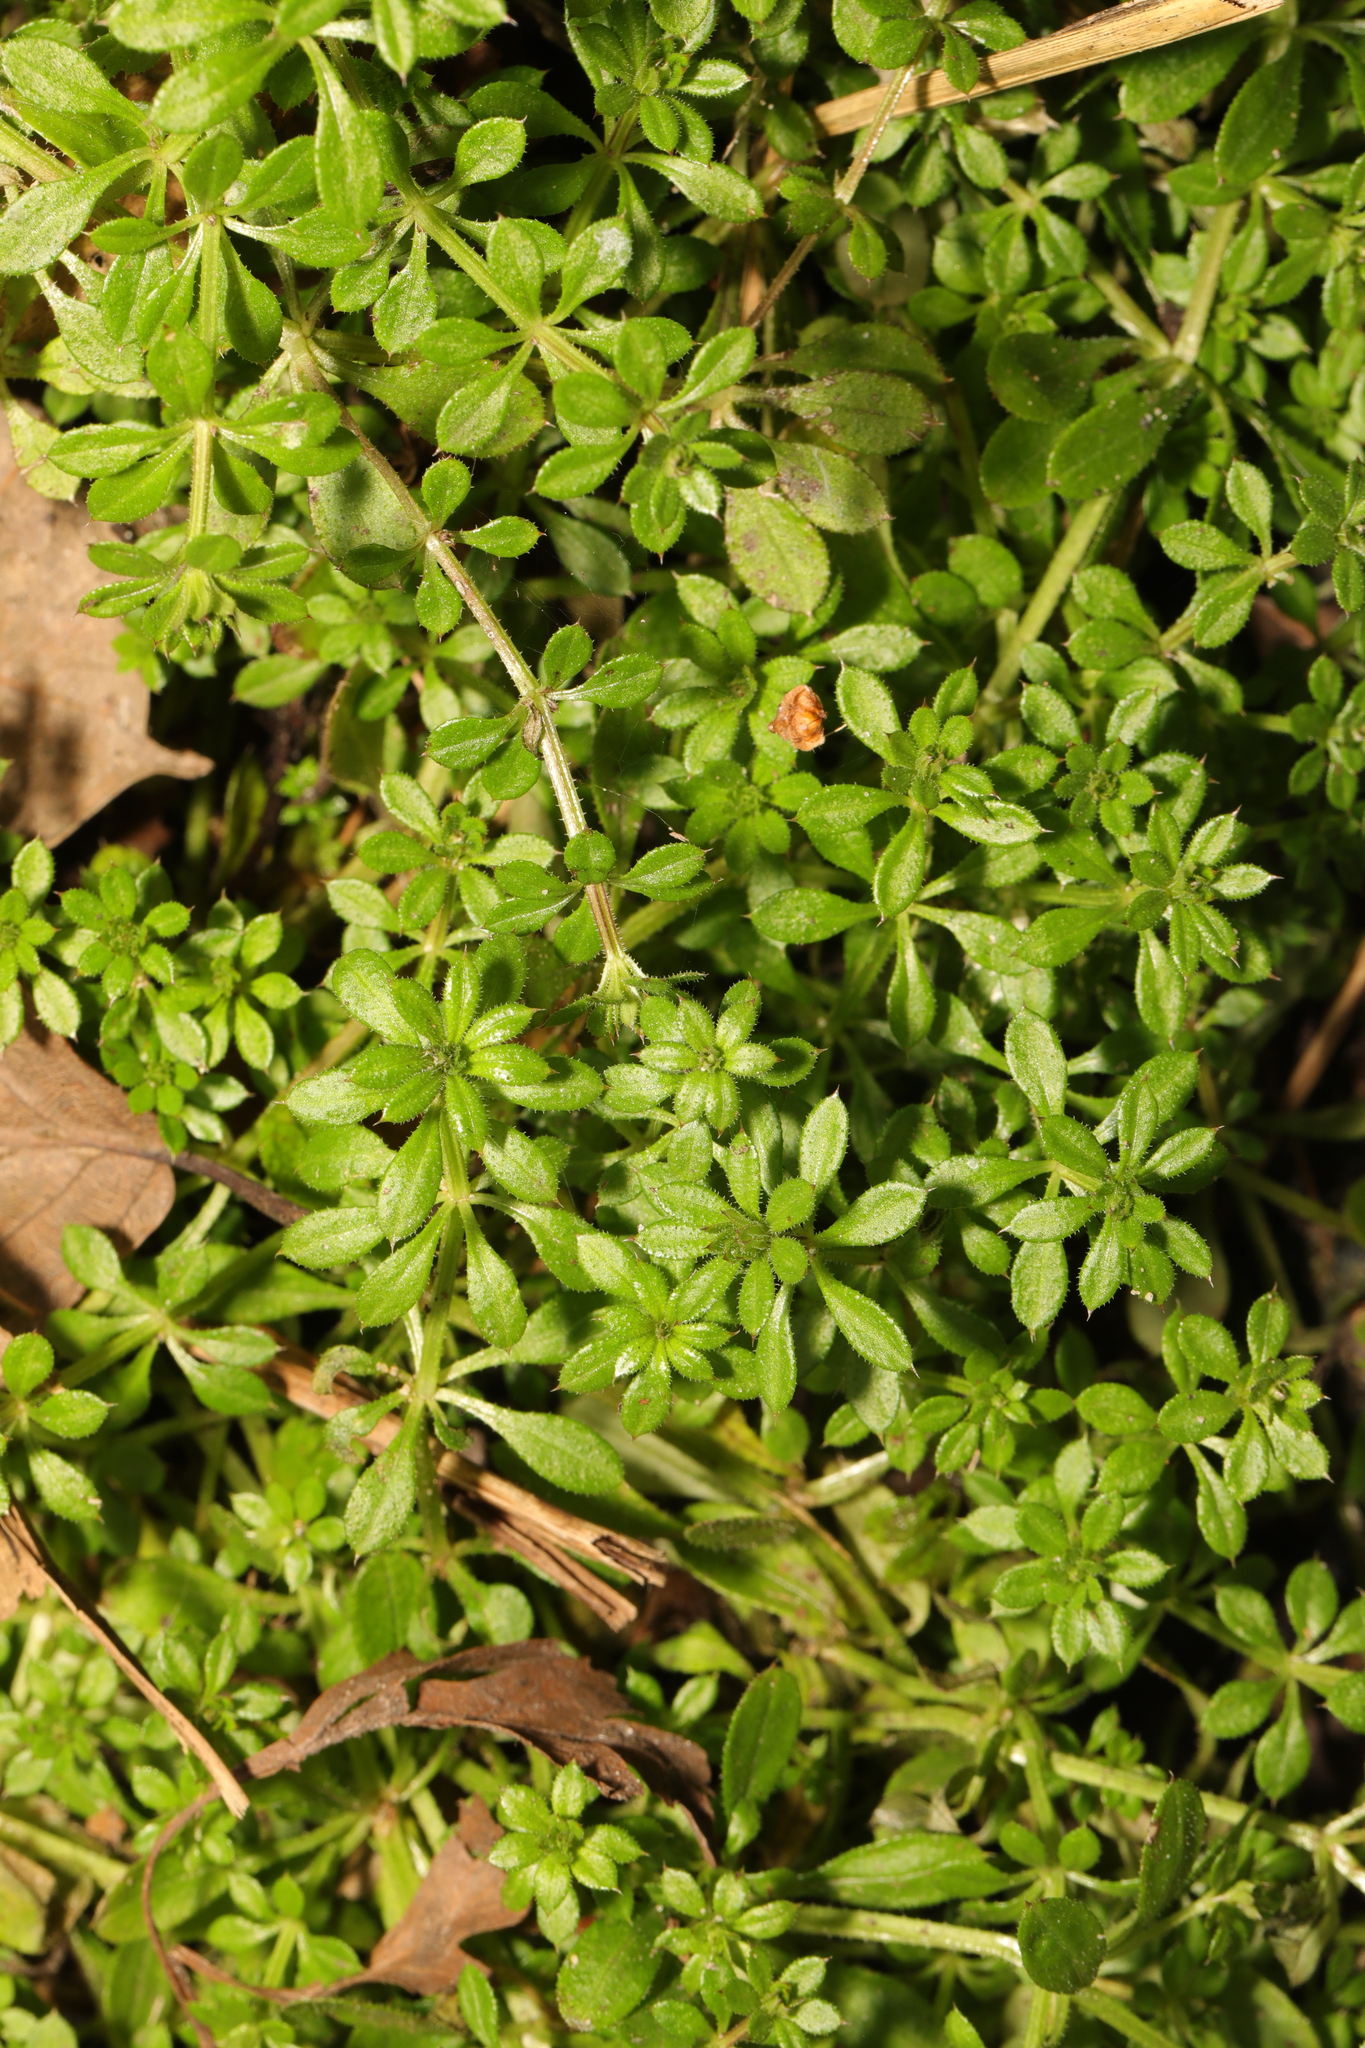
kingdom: Plantae
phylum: Tracheophyta
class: Magnoliopsida
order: Gentianales
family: Rubiaceae
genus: Galium
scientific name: Galium aparine
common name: Cleavers
